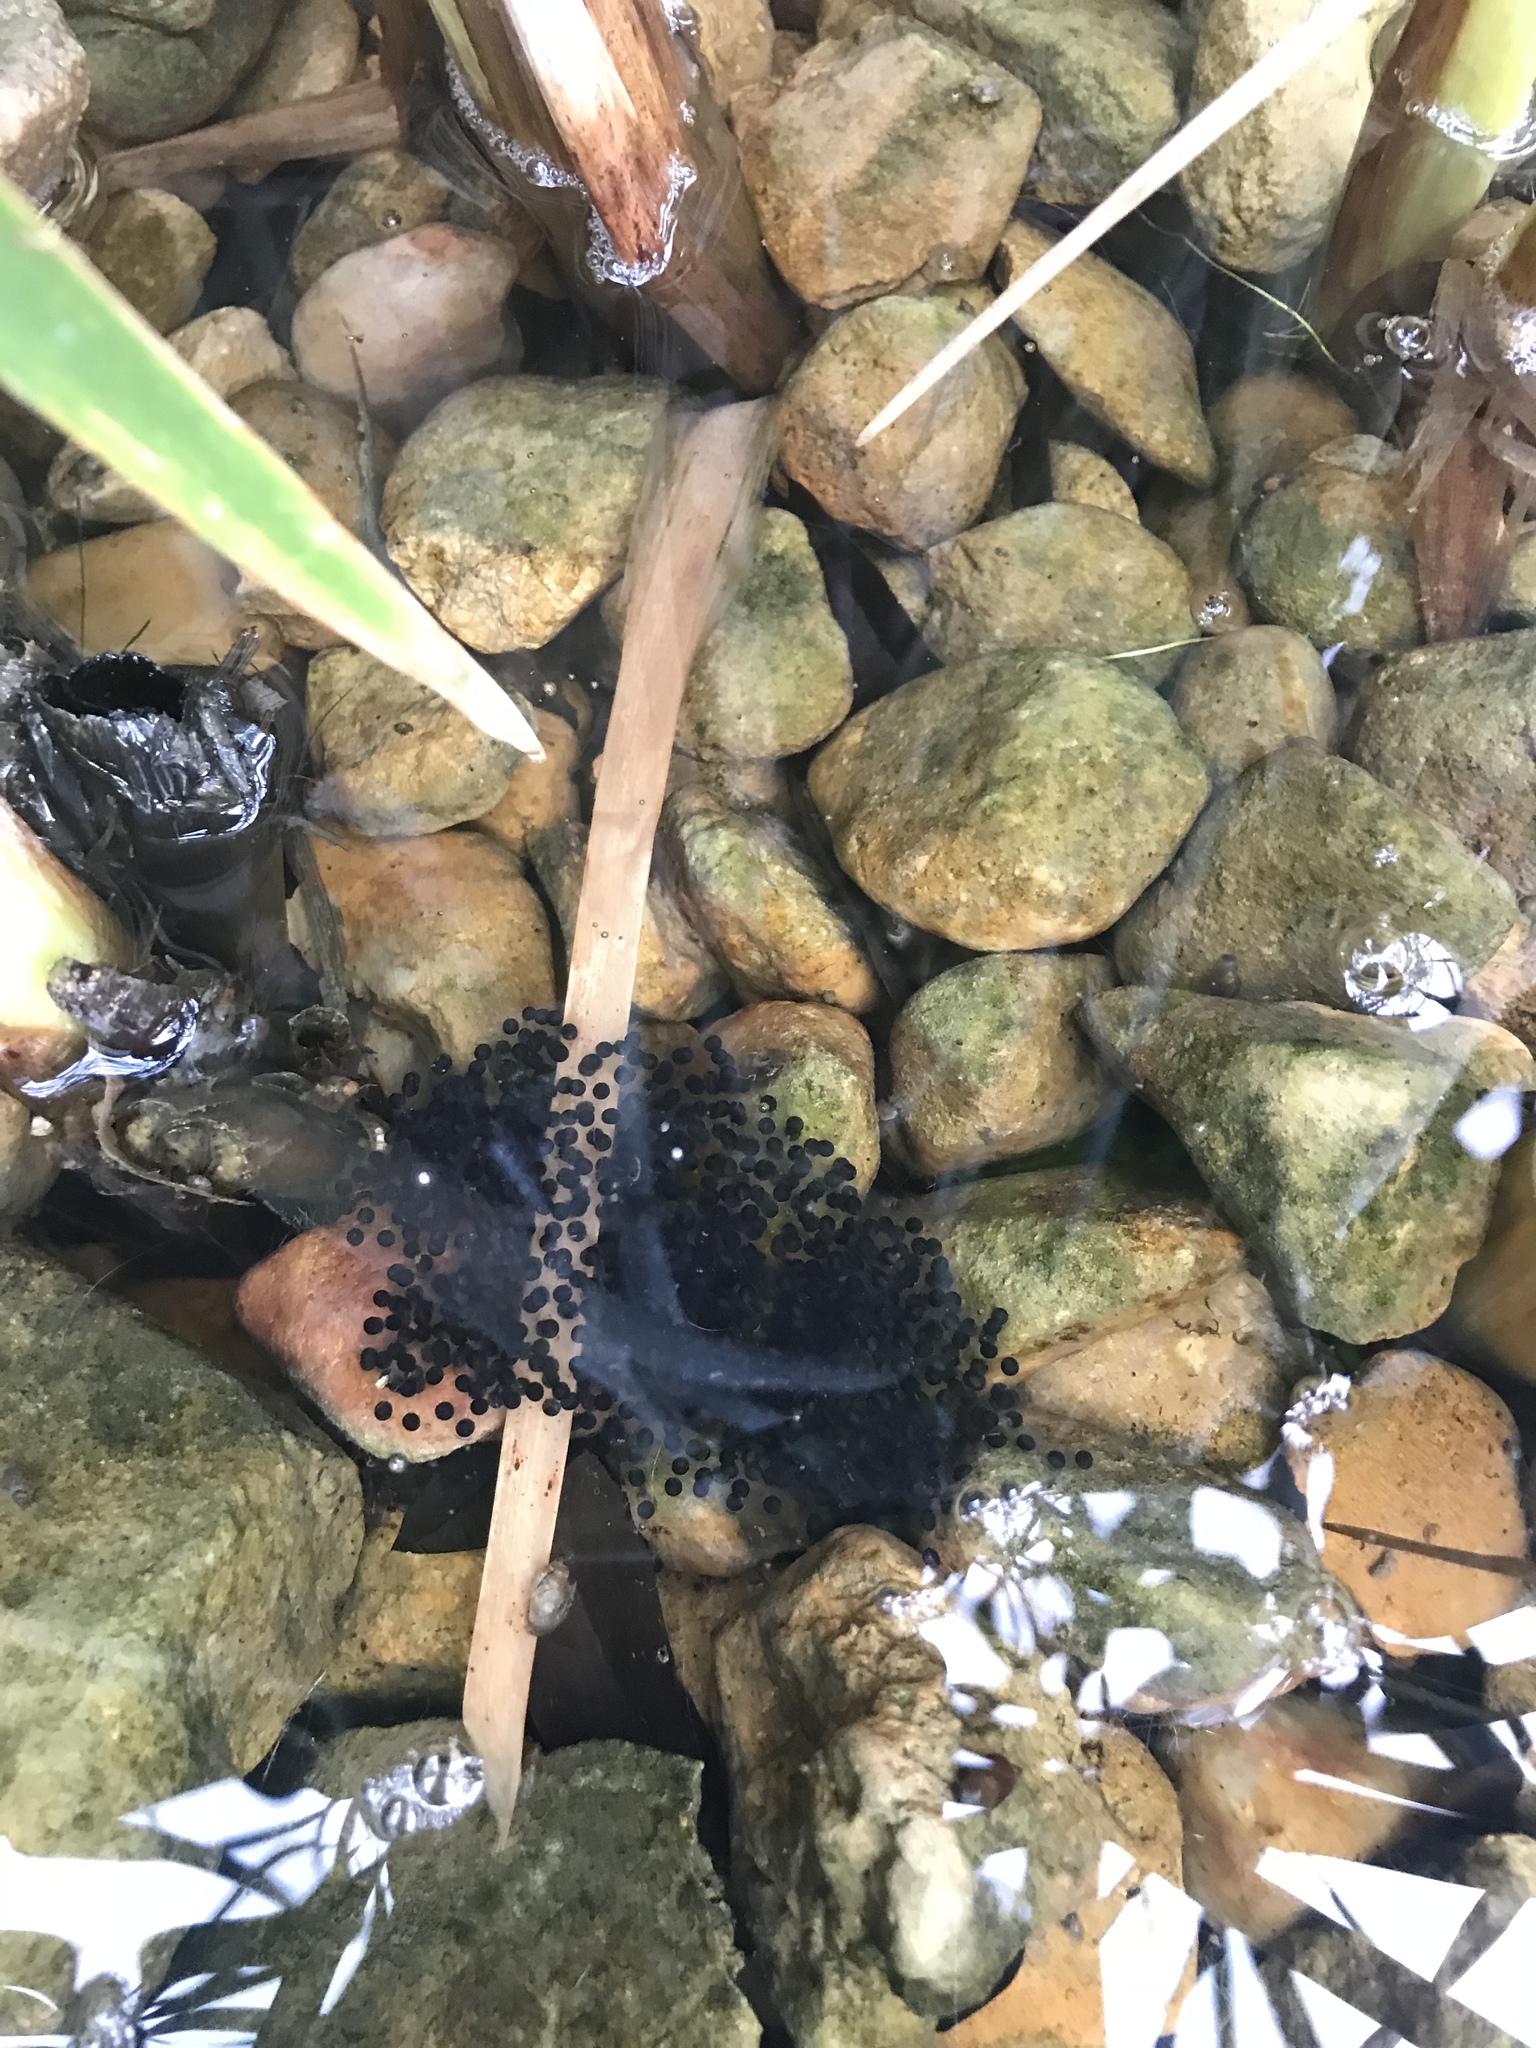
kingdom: Animalia
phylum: Chordata
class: Amphibia
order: Anura
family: Ranidae
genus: Lithobates
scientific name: Lithobates berlandieri
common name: Rio grande leopard frog
